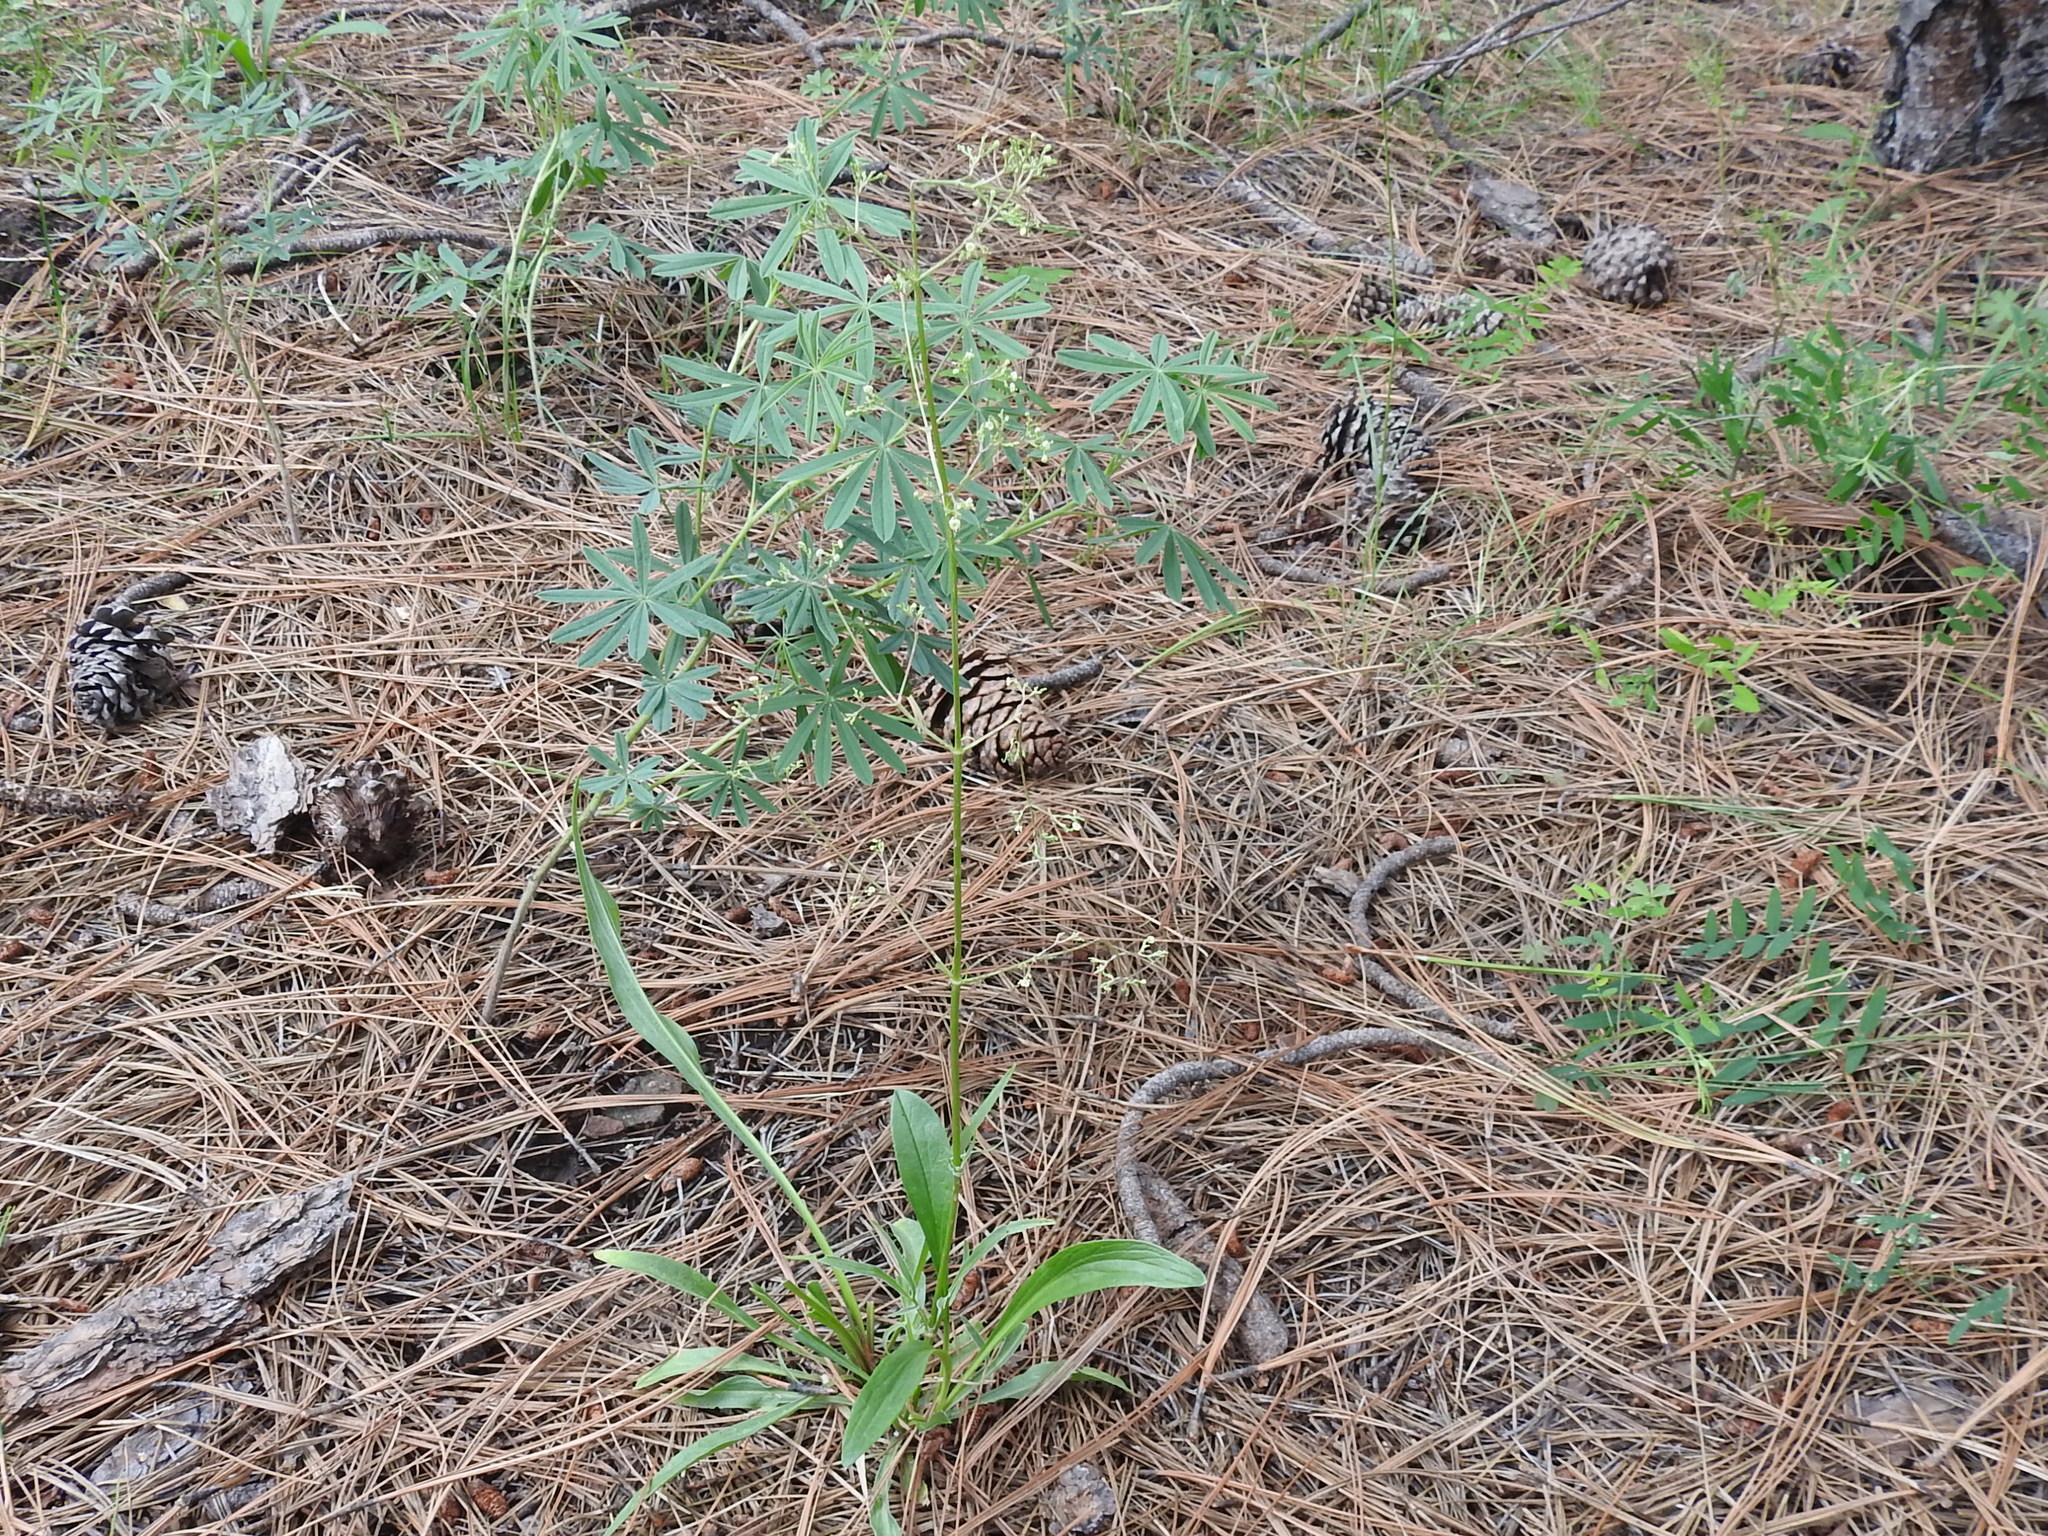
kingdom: Plantae
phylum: Tracheophyta
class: Magnoliopsida
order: Dipsacales
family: Caprifoliaceae
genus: Valeriana
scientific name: Valeriana edulis
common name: Taproot valerian
